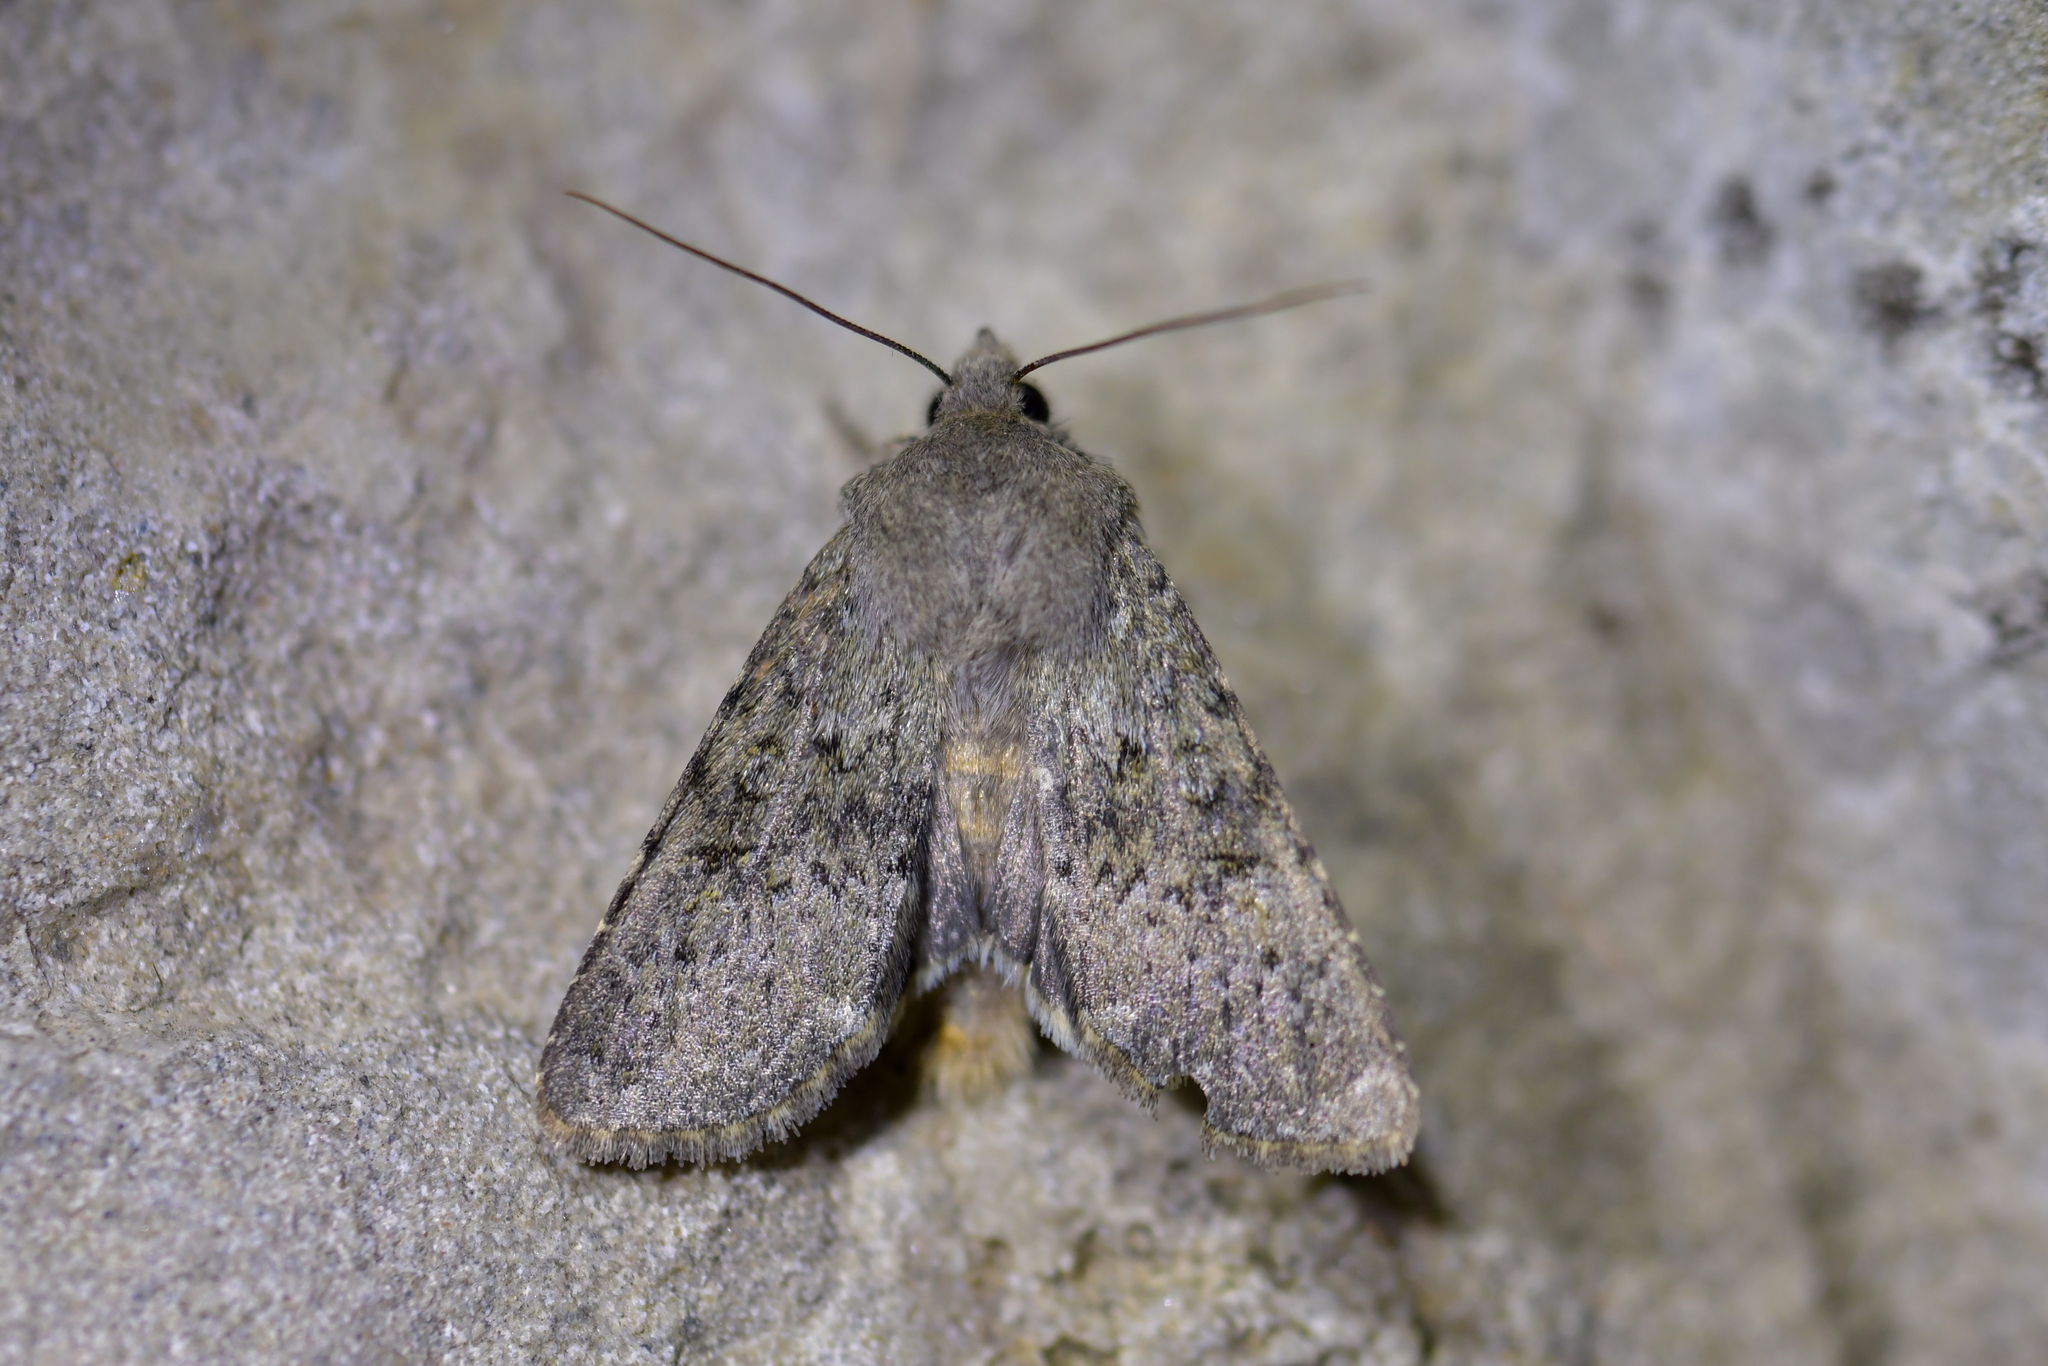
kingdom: Animalia
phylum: Arthropoda
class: Insecta
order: Lepidoptera
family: Noctuidae
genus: Ichneutica
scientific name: Ichneutica moderata
